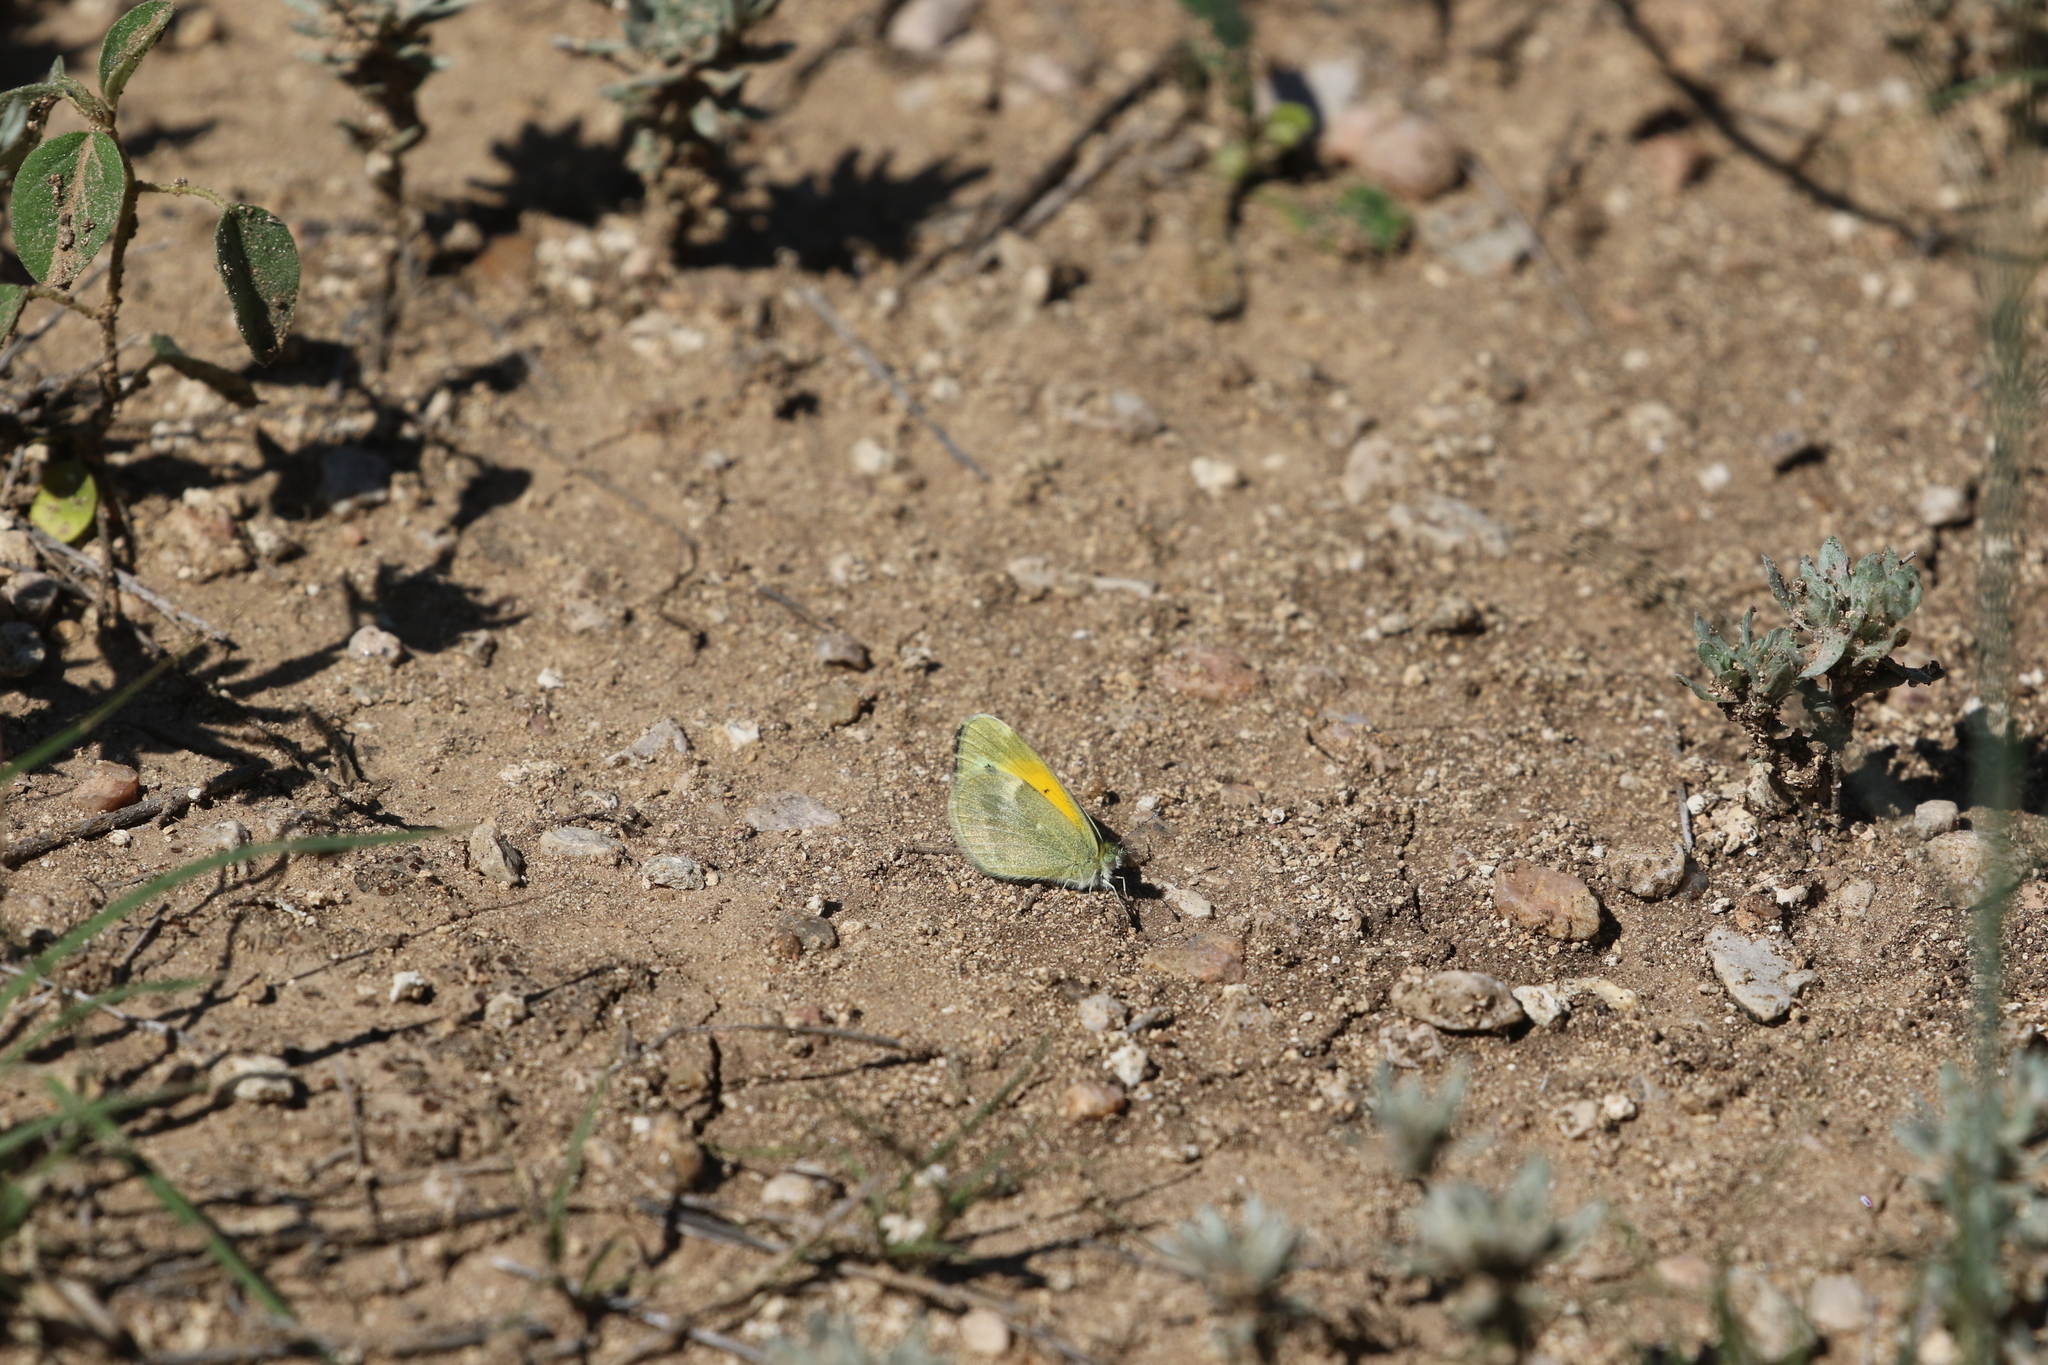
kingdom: Animalia
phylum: Arthropoda
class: Insecta
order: Lepidoptera
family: Pieridae
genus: Nathalis
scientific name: Nathalis iole
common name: Dainty sulphur
